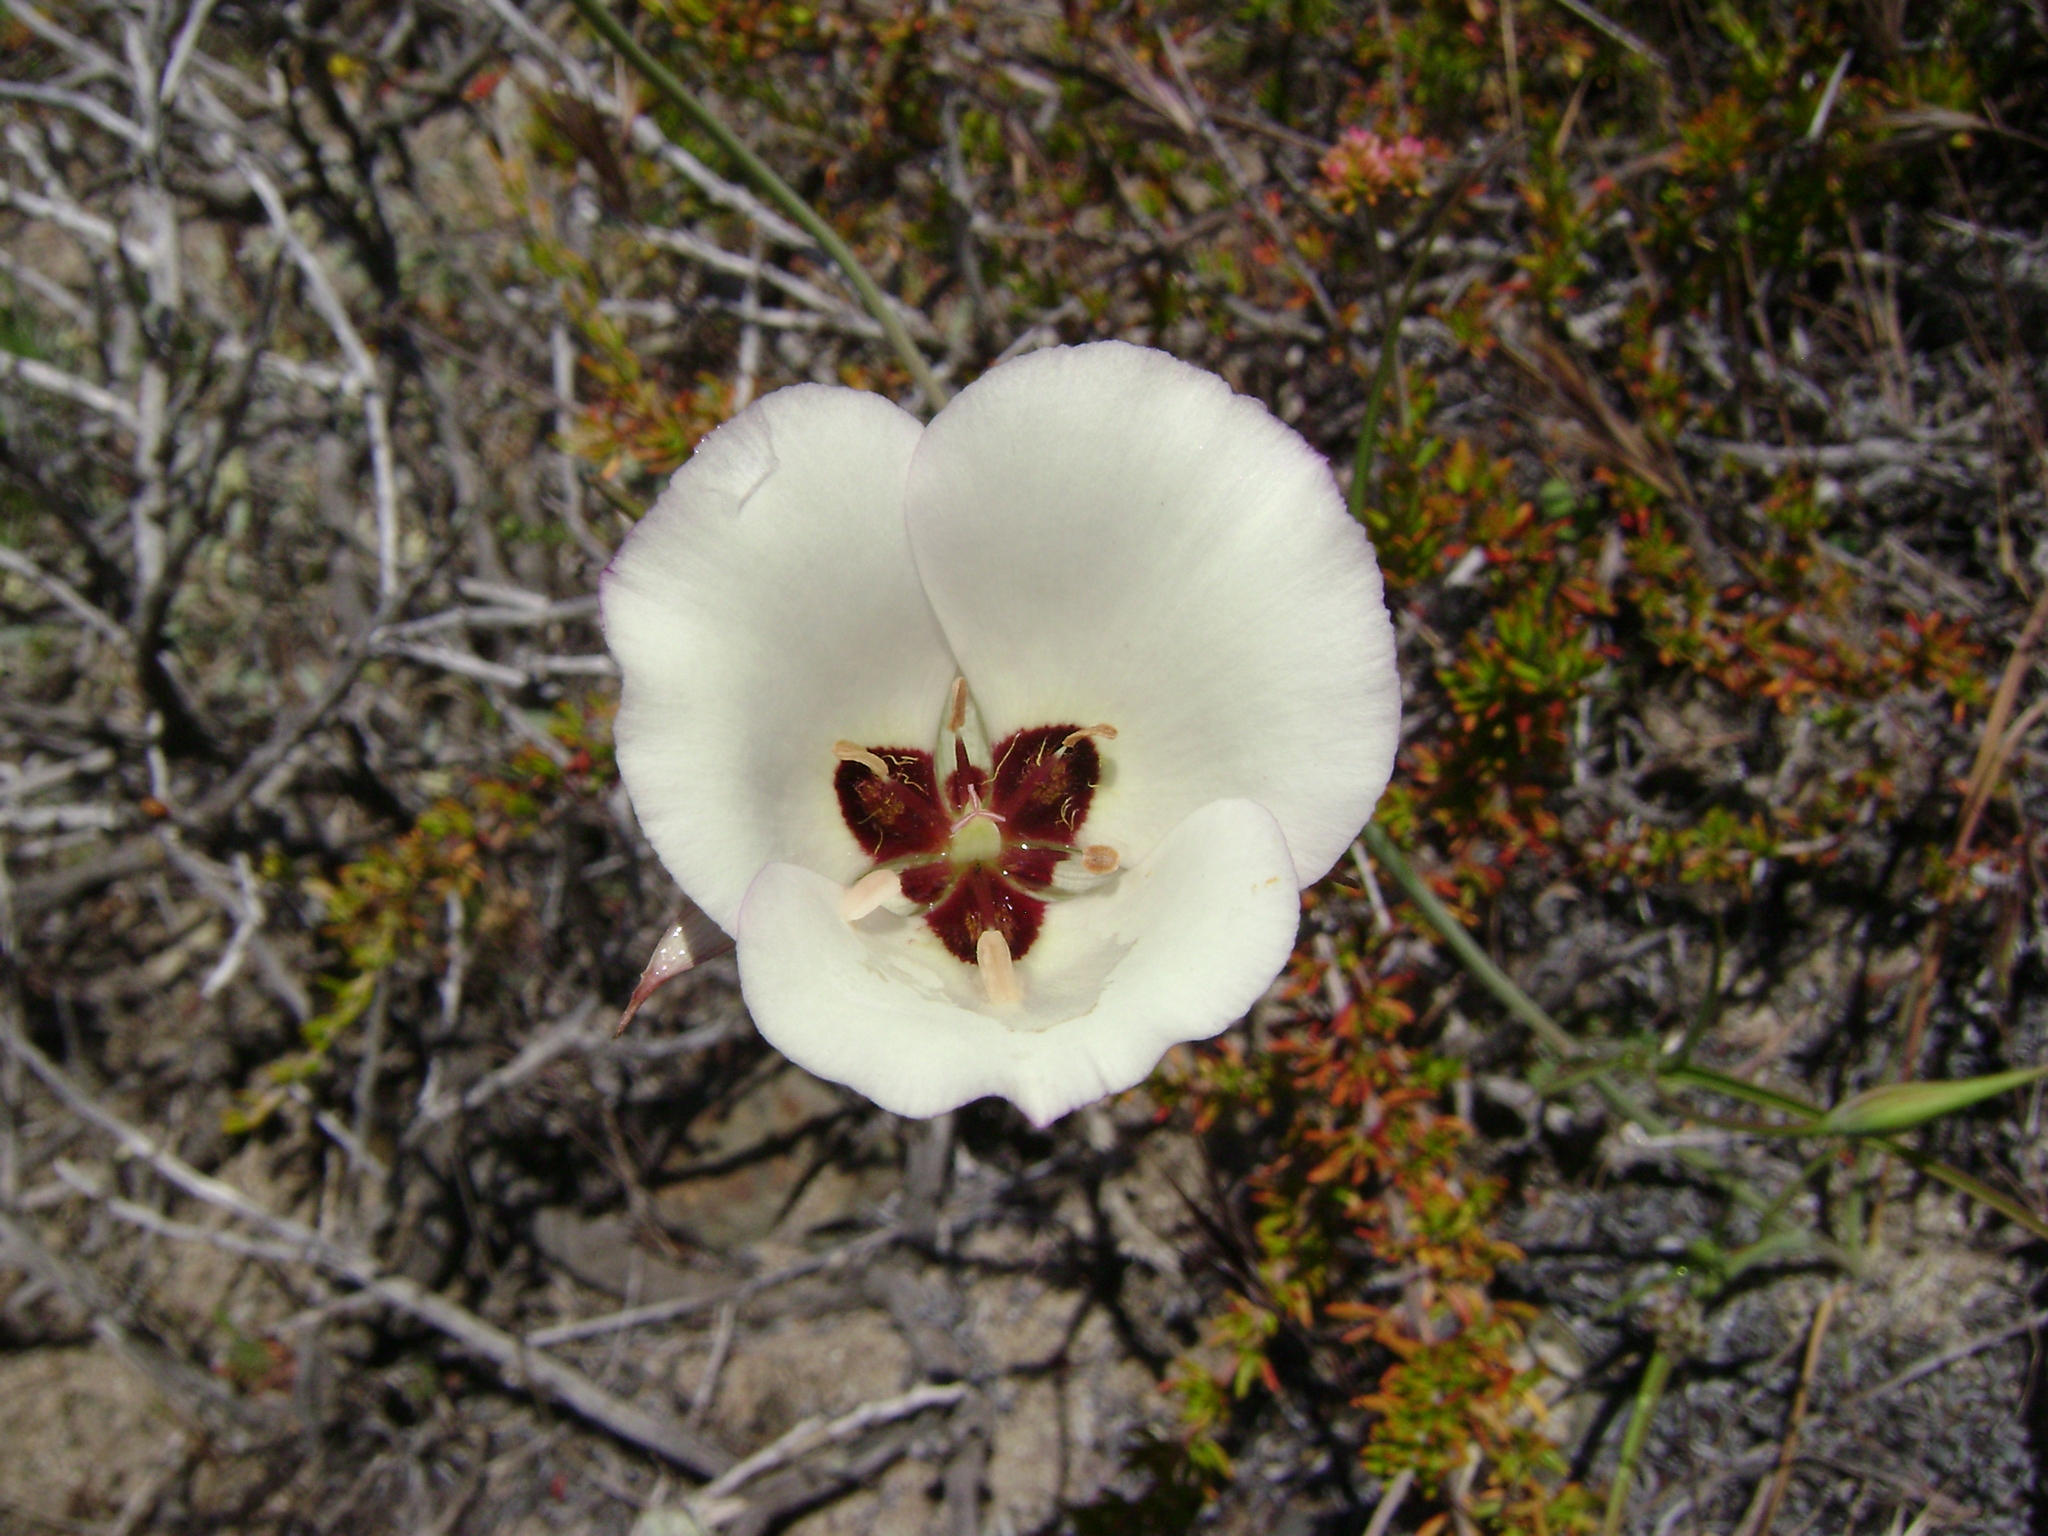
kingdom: Plantae
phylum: Tracheophyta
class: Liliopsida
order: Liliales
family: Liliaceae
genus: Calochortus
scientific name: Calochortus catalinae
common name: Catalina mariposa-lily
